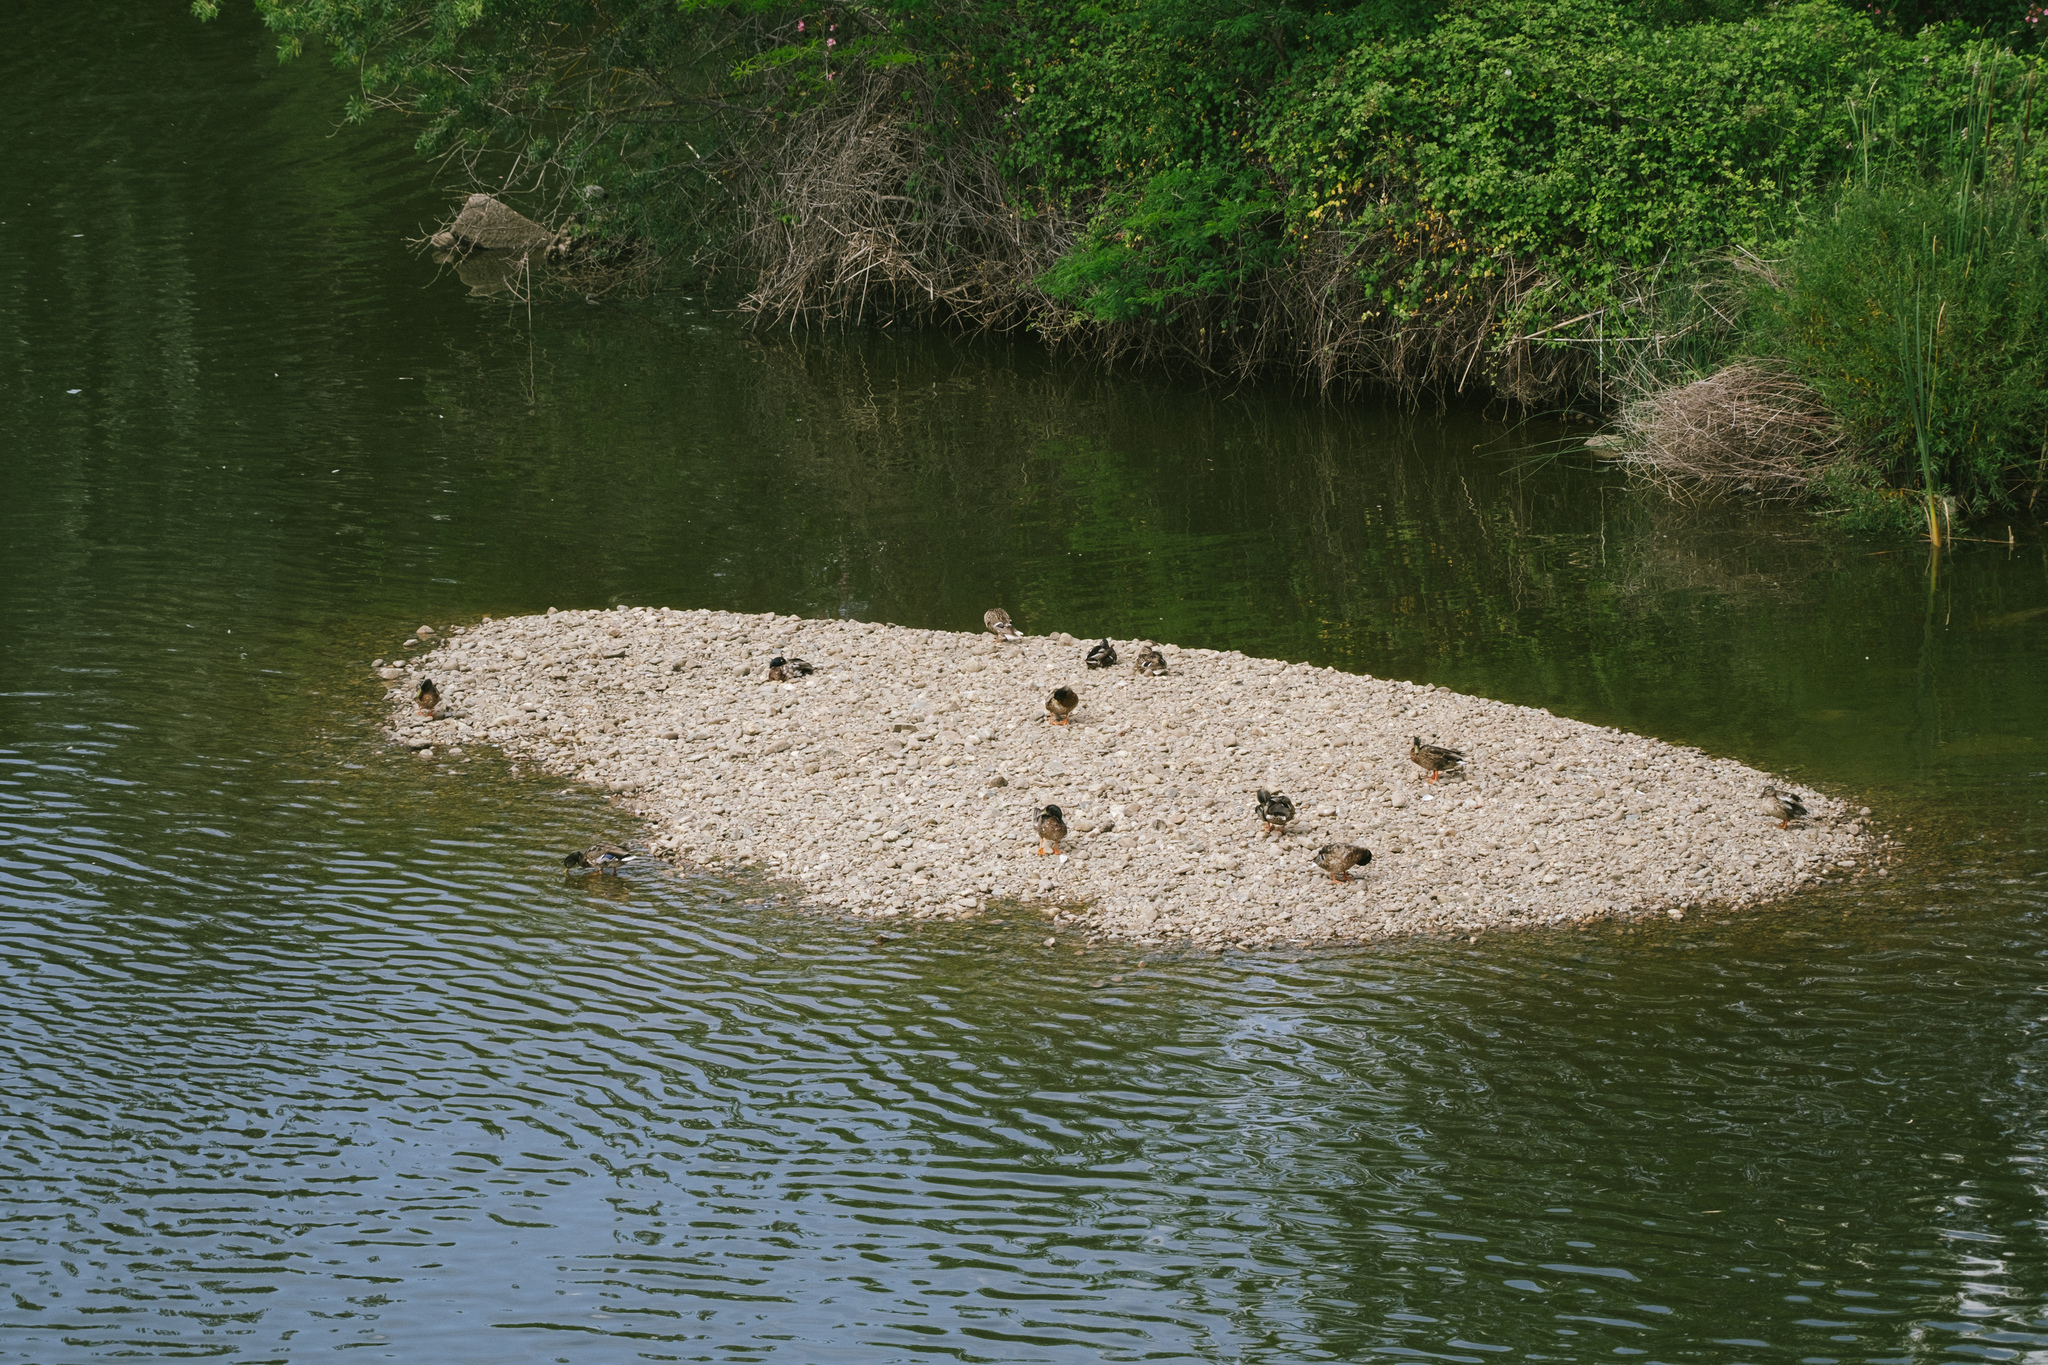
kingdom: Animalia
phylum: Chordata
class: Aves
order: Anseriformes
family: Anatidae
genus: Anas
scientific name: Anas platyrhynchos
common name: Mallard
